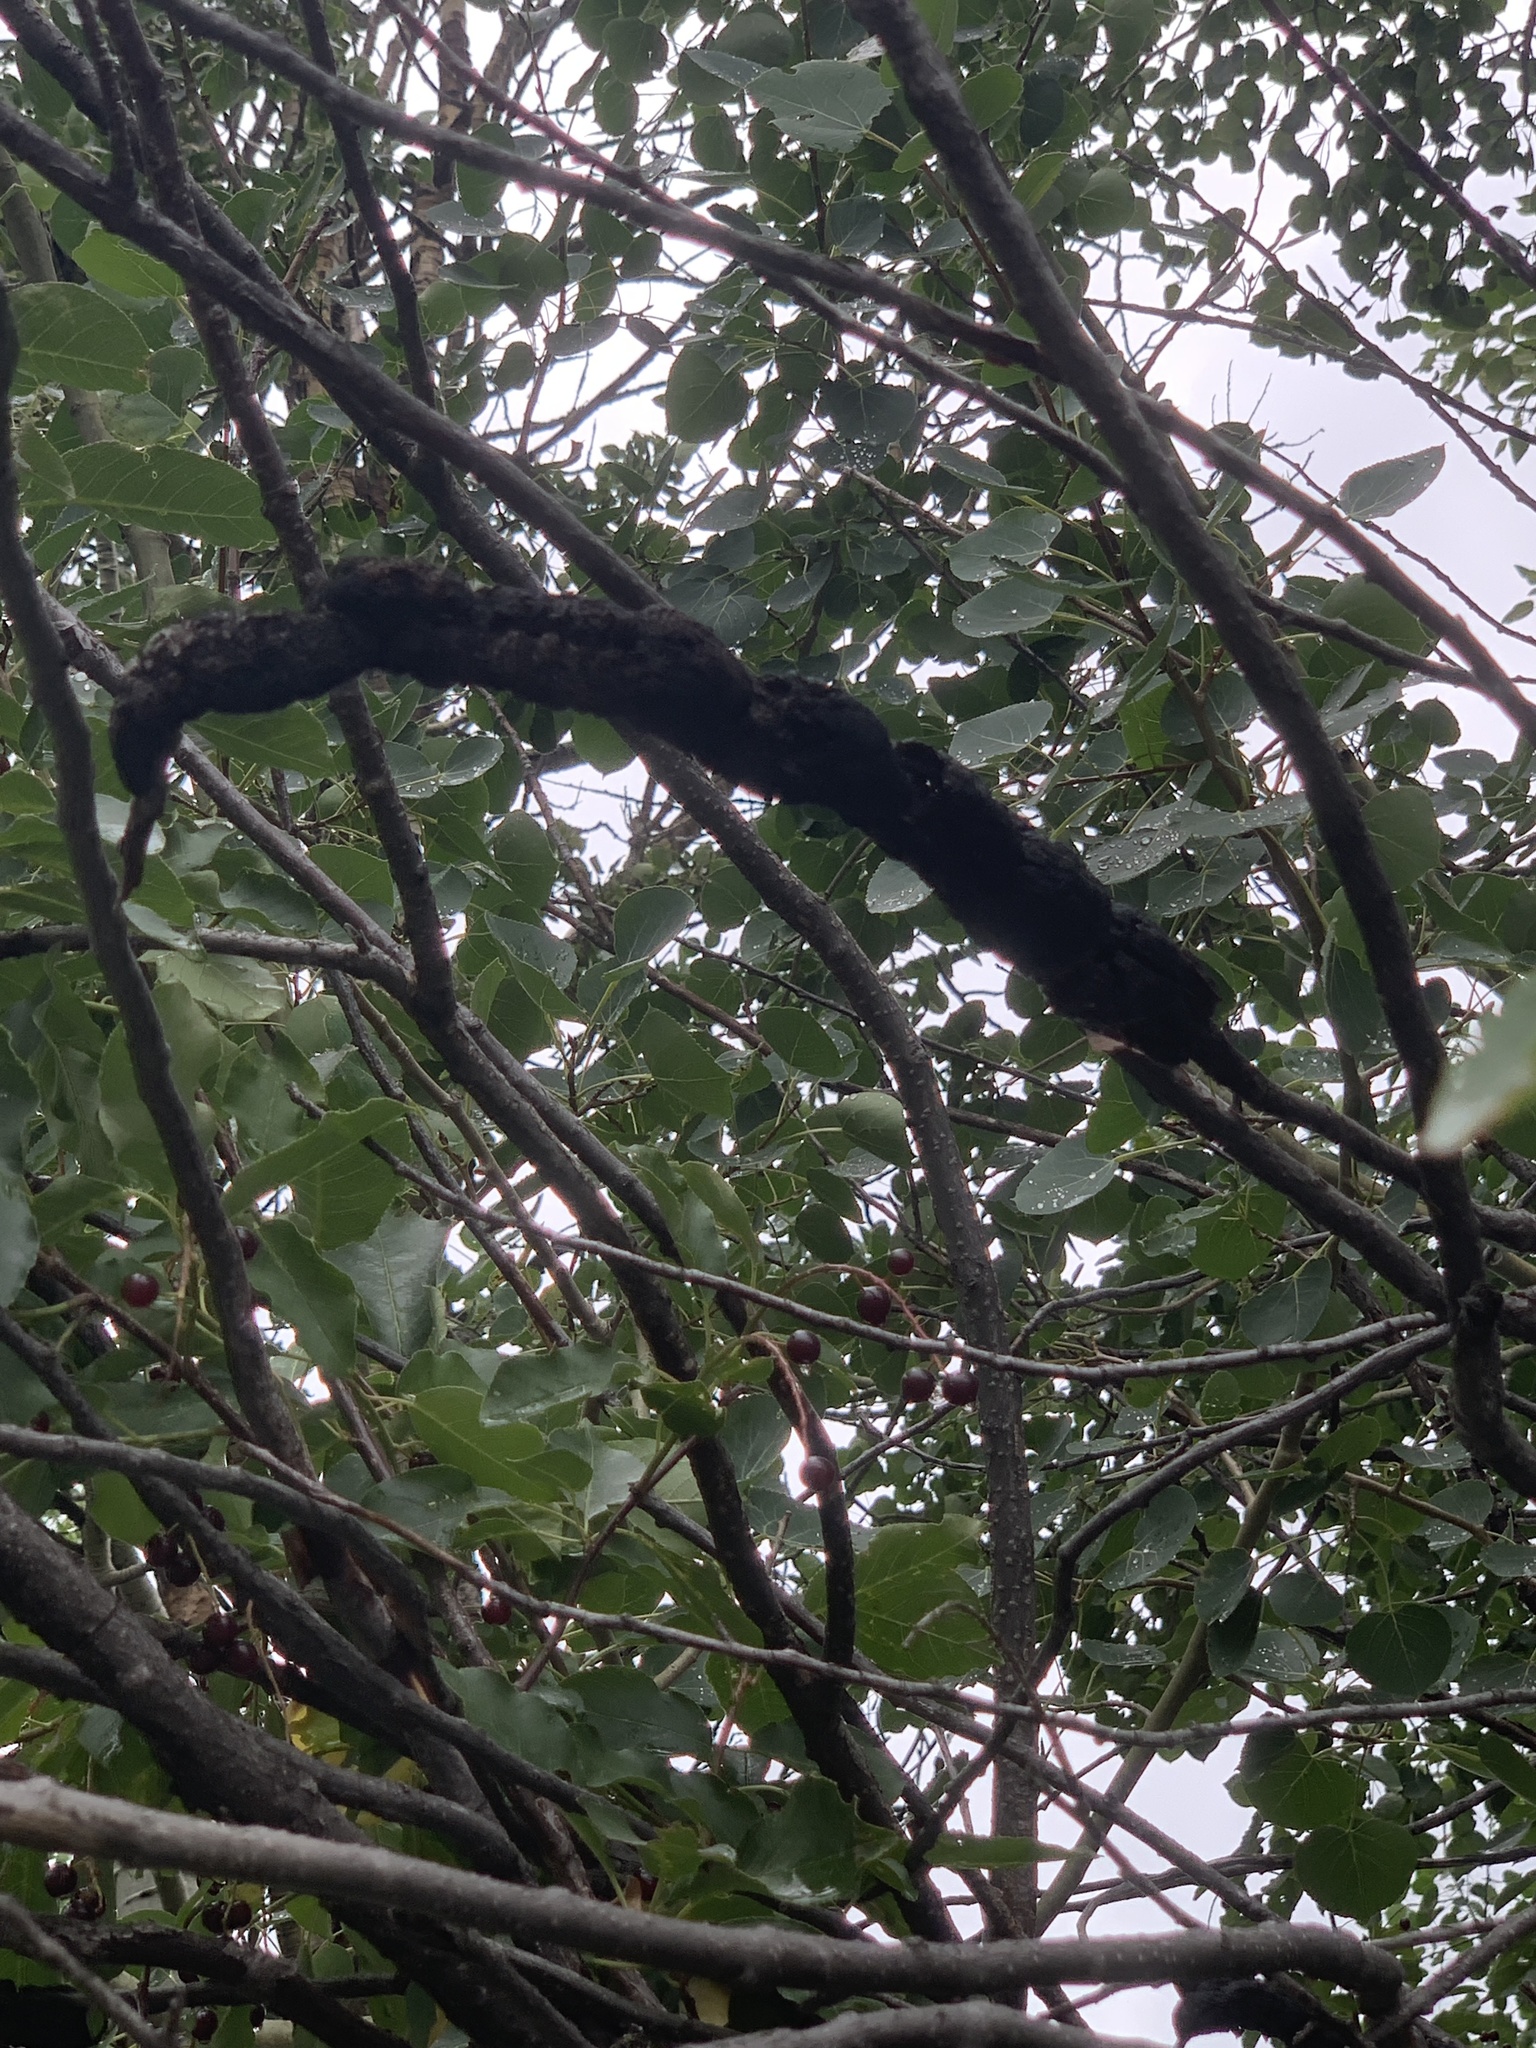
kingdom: Fungi
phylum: Ascomycota
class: Dothideomycetes
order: Venturiales
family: Venturiaceae
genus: Apiosporina
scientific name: Apiosporina morbosa
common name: Black knot
